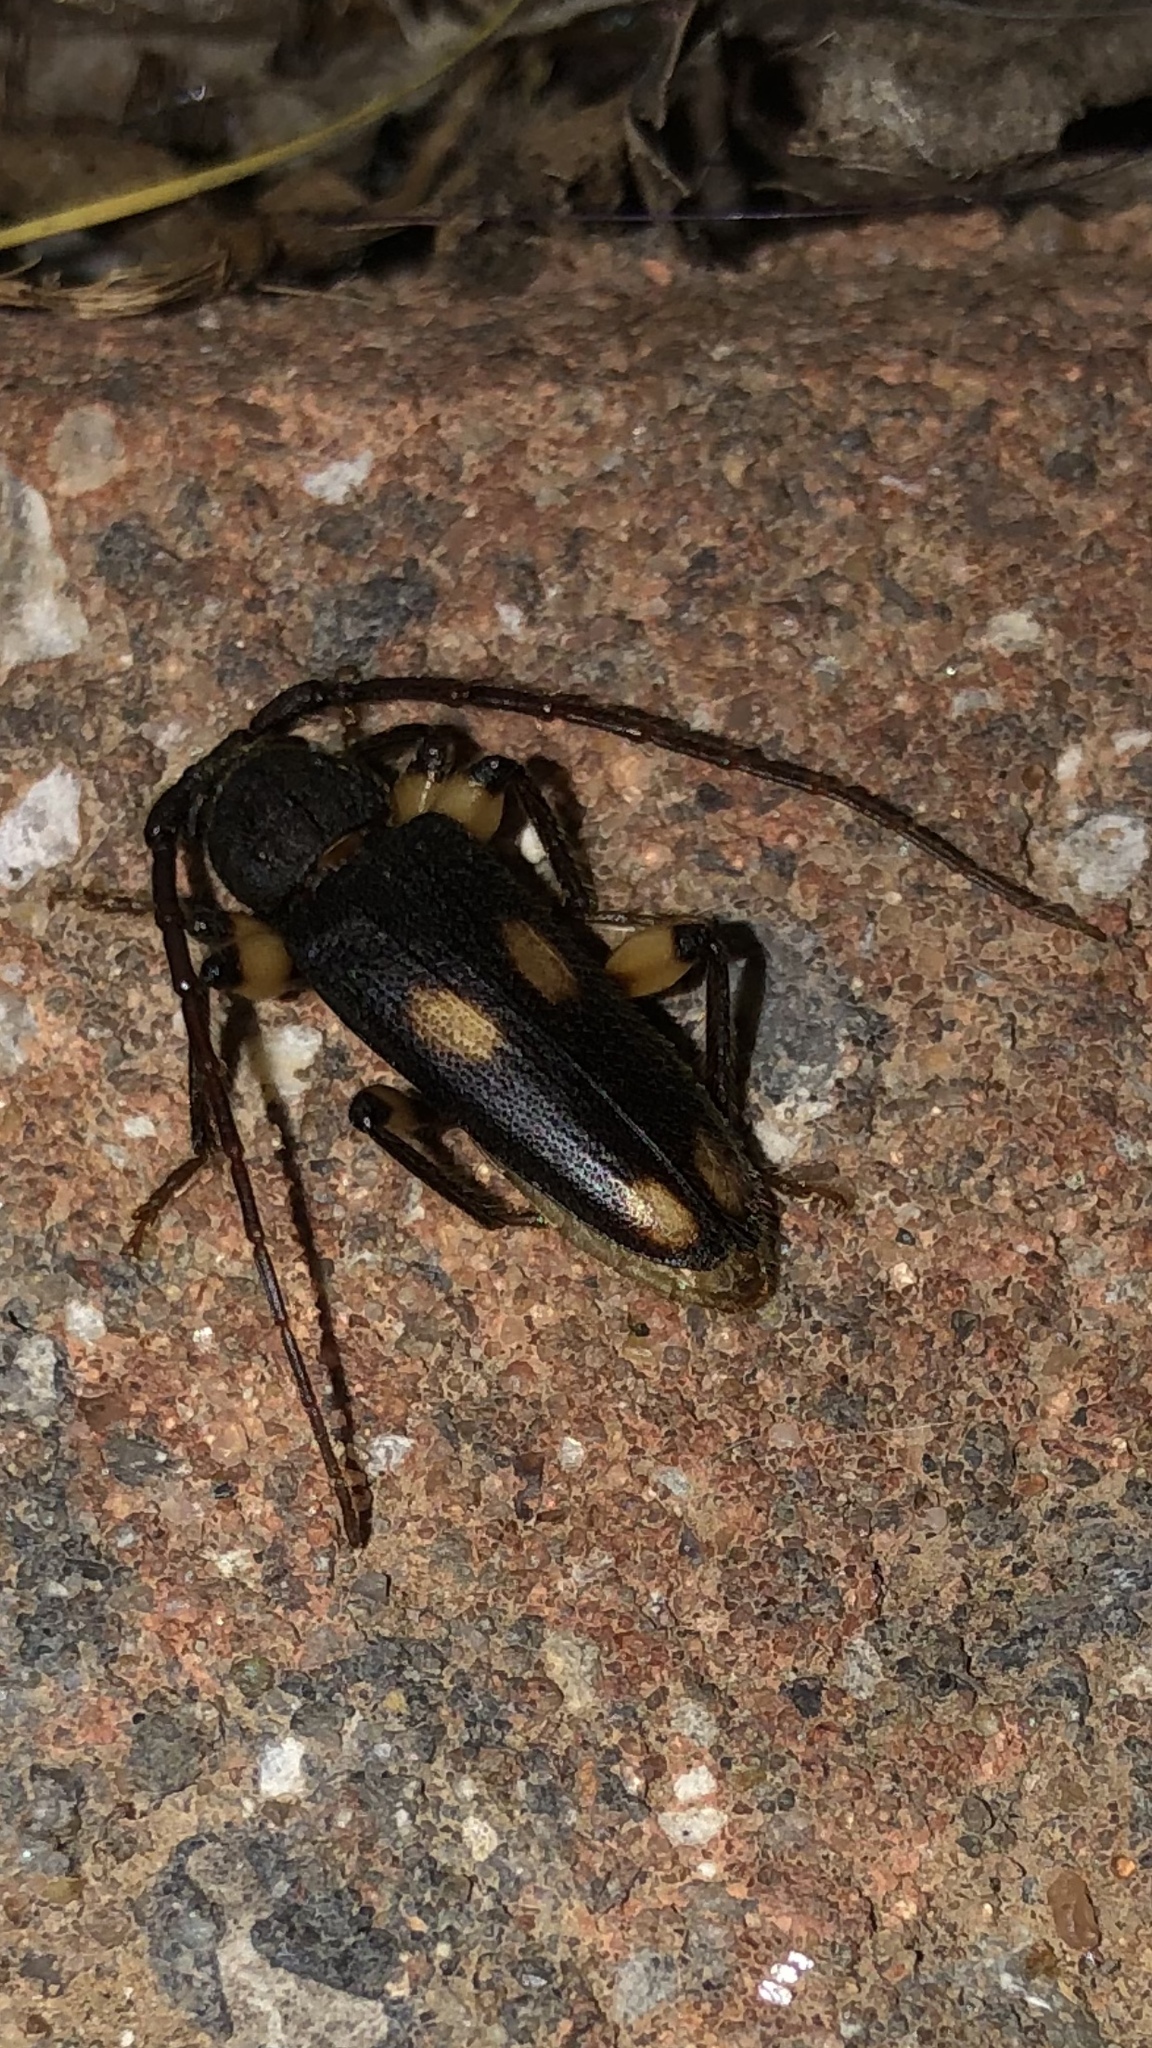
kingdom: Animalia
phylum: Arthropoda
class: Insecta
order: Coleoptera
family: Cerambycidae
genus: Tylonotus
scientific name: Tylonotus bimaculatus
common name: Ash and privet borer
